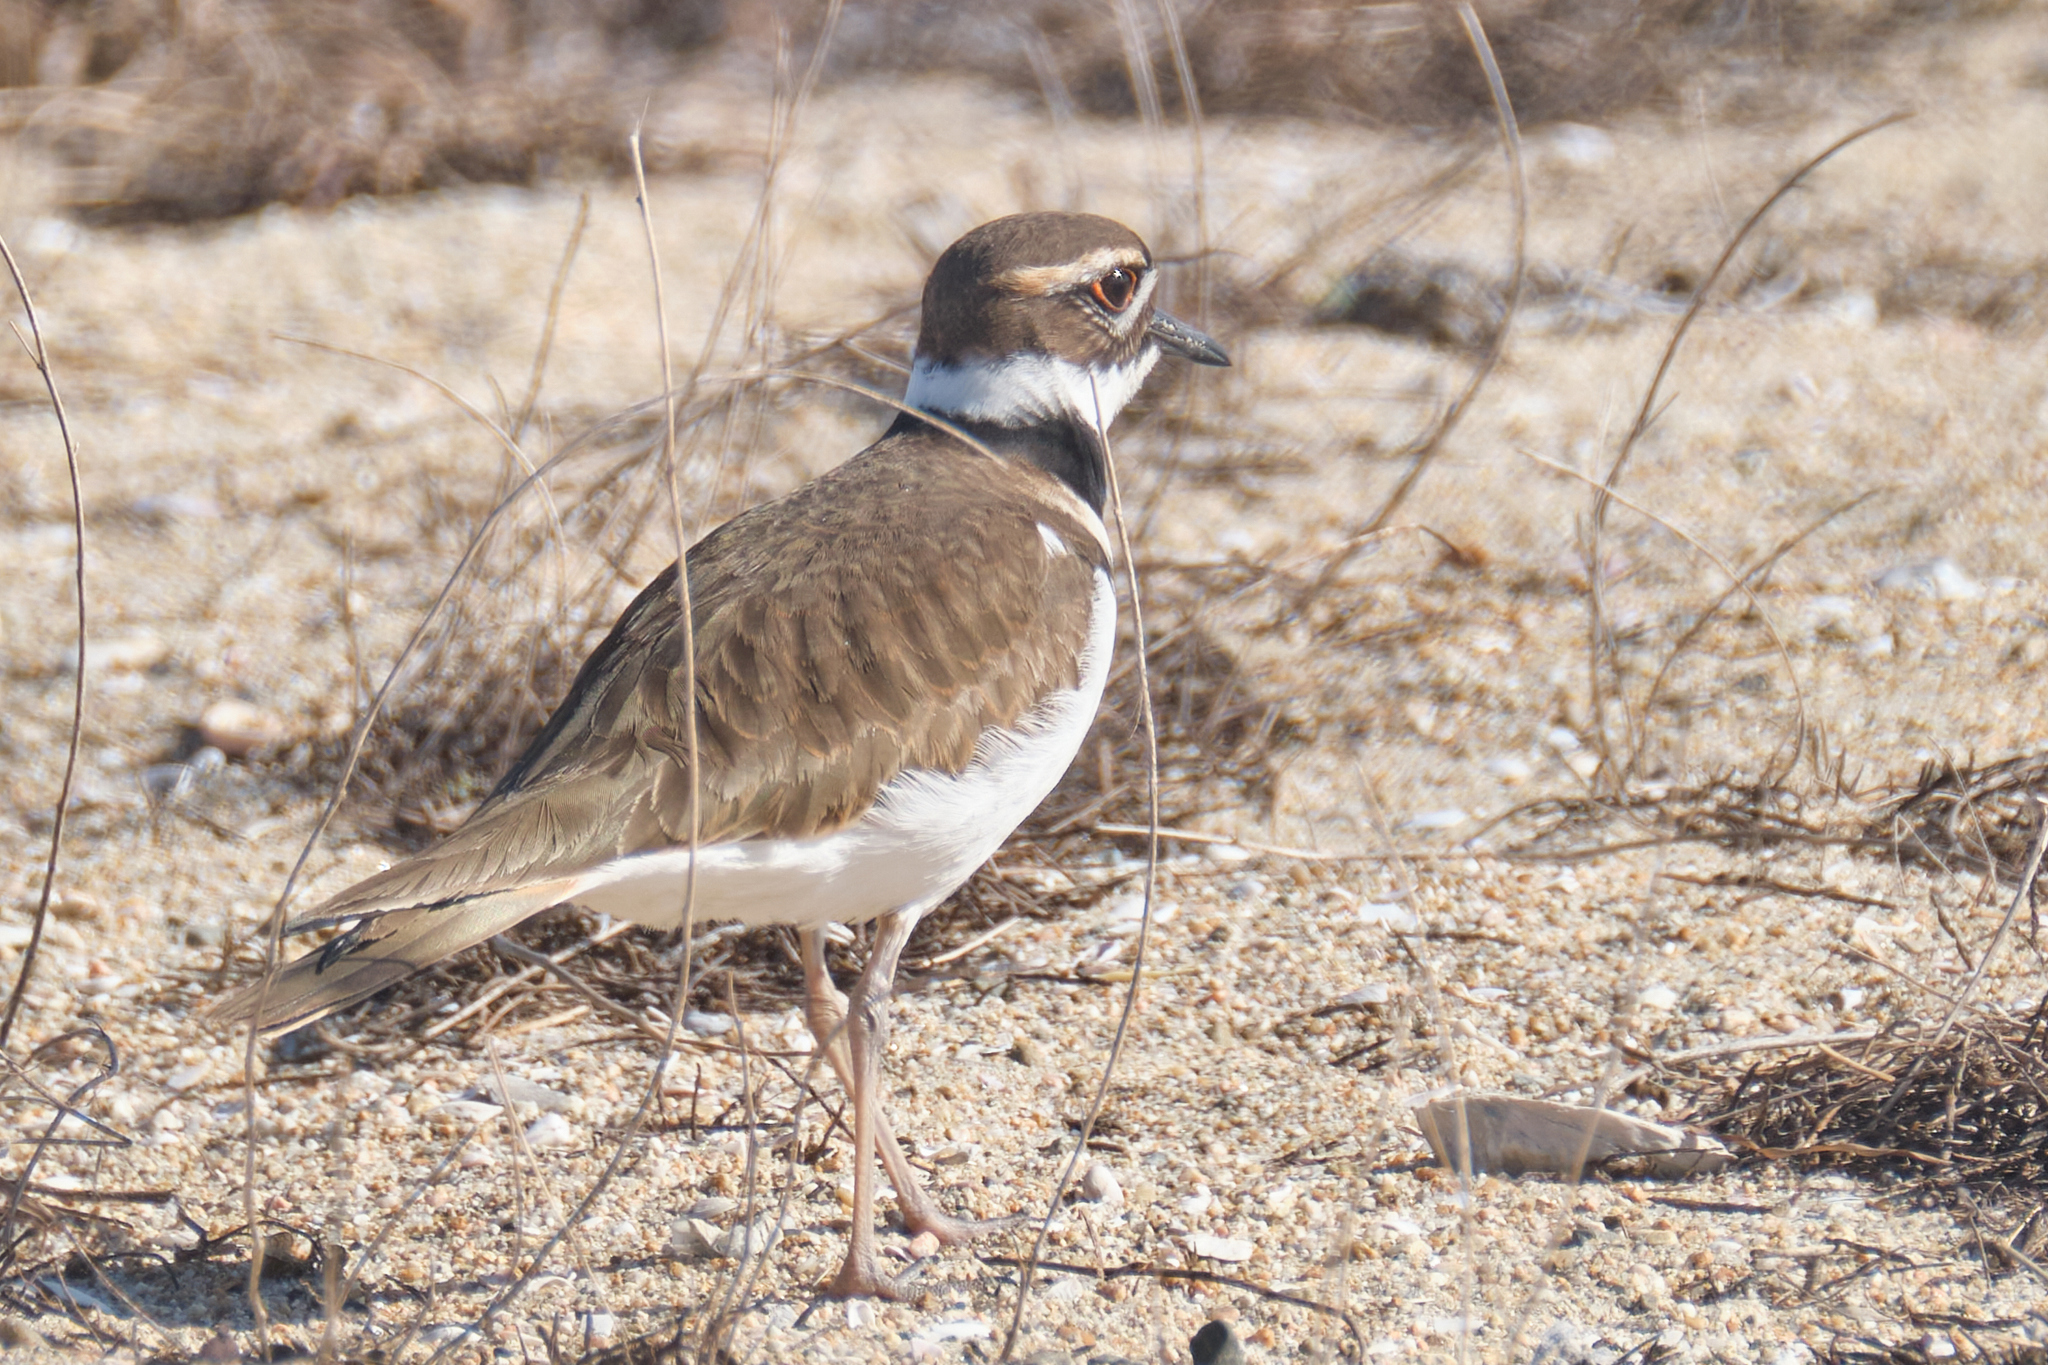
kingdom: Animalia
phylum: Chordata
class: Aves
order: Charadriiformes
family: Charadriidae
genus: Charadrius
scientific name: Charadrius vociferus
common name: Killdeer
